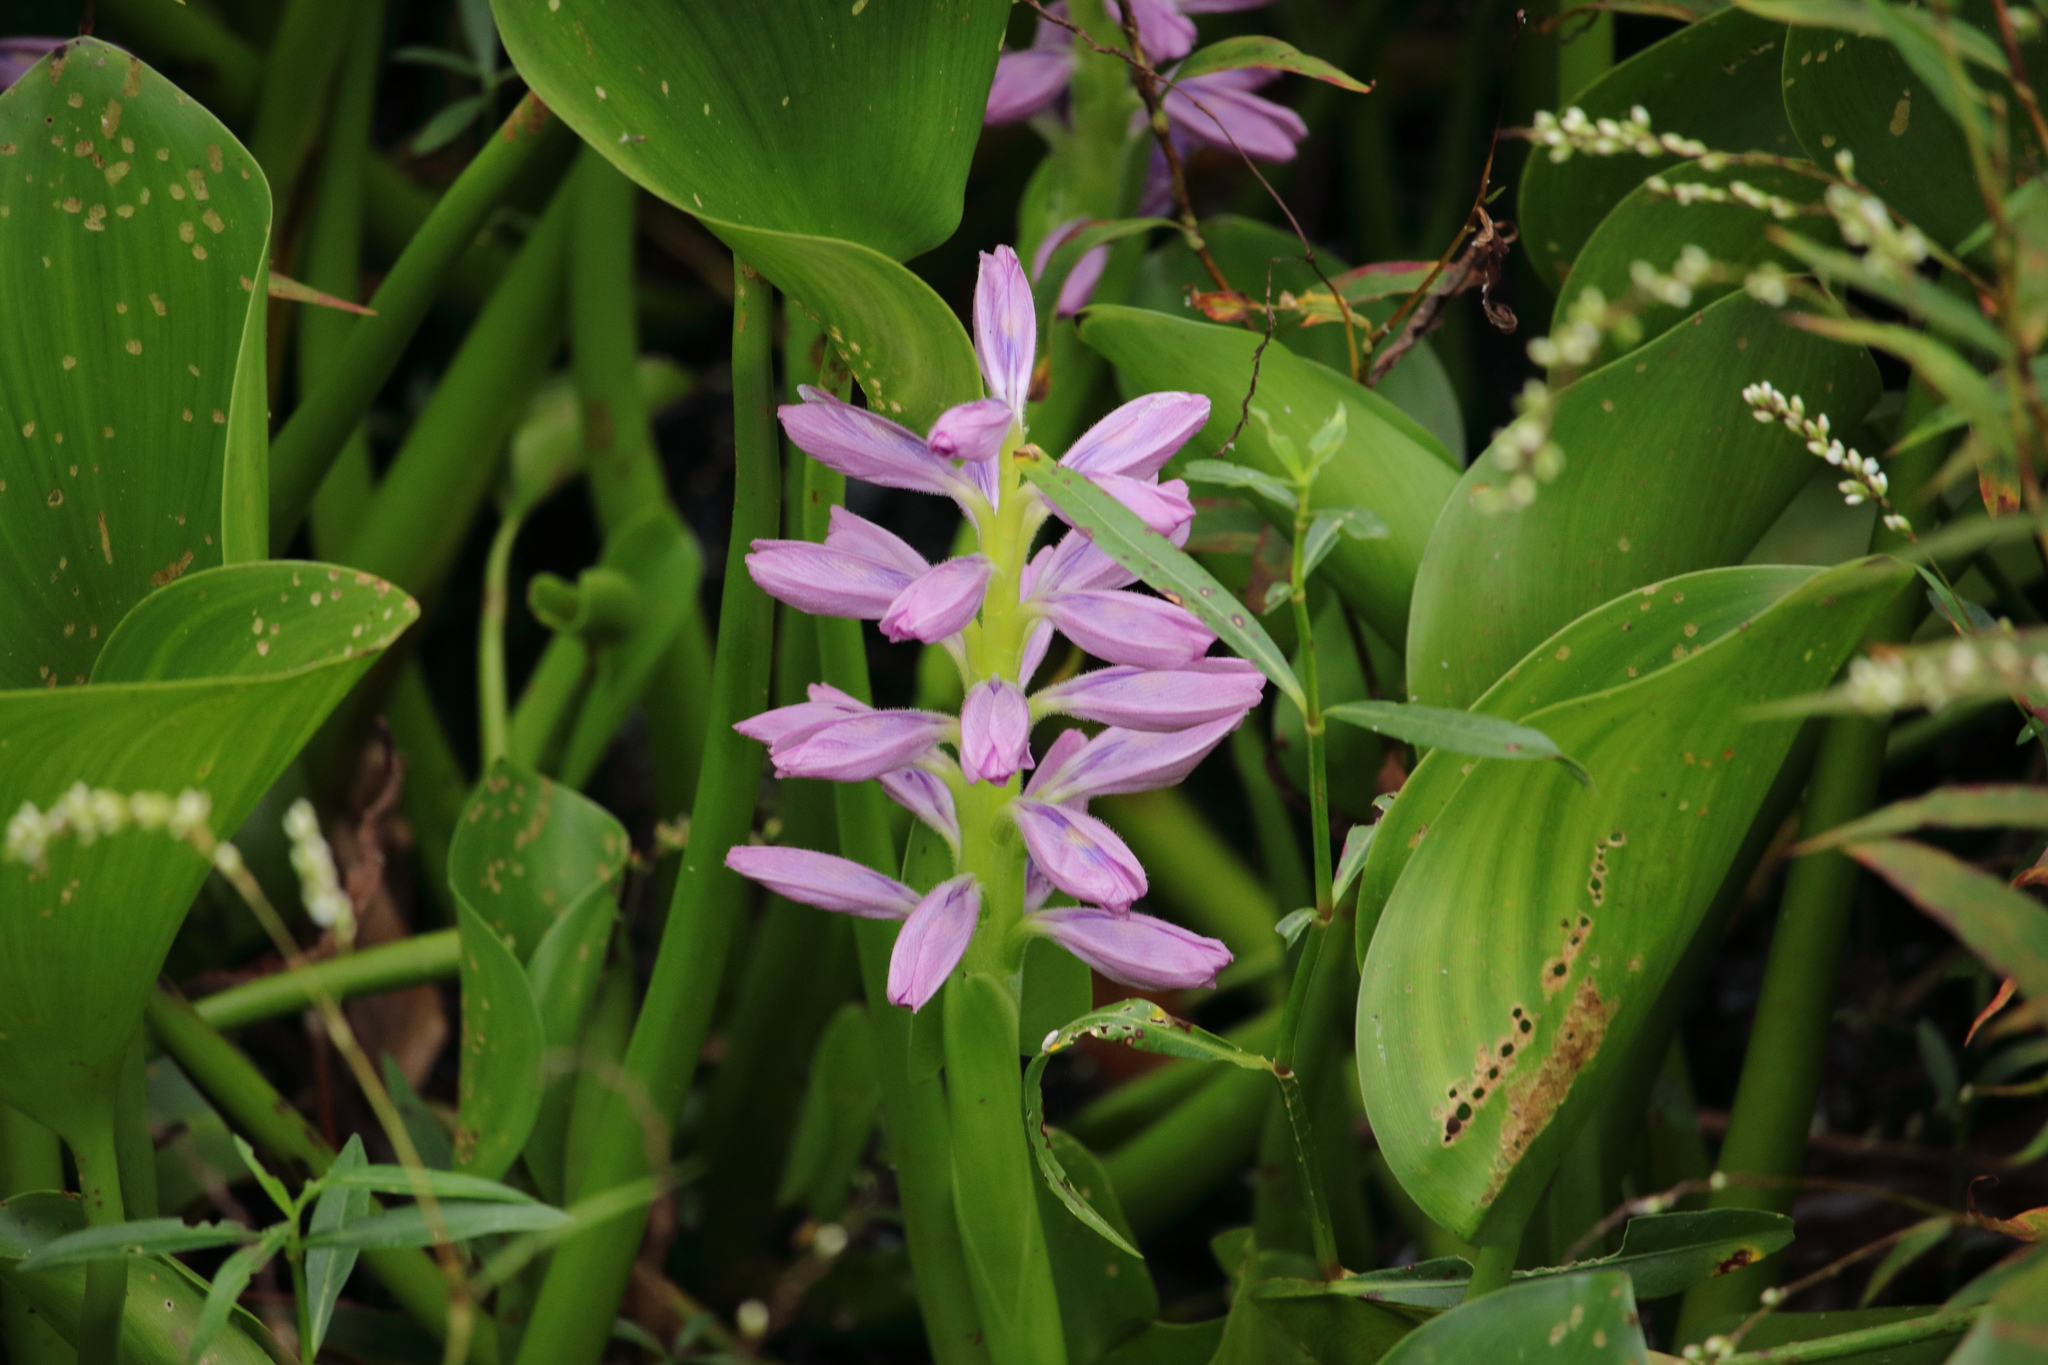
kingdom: Plantae
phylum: Tracheophyta
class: Liliopsida
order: Commelinales
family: Pontederiaceae
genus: Pontederia
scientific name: Pontederia crassipes
